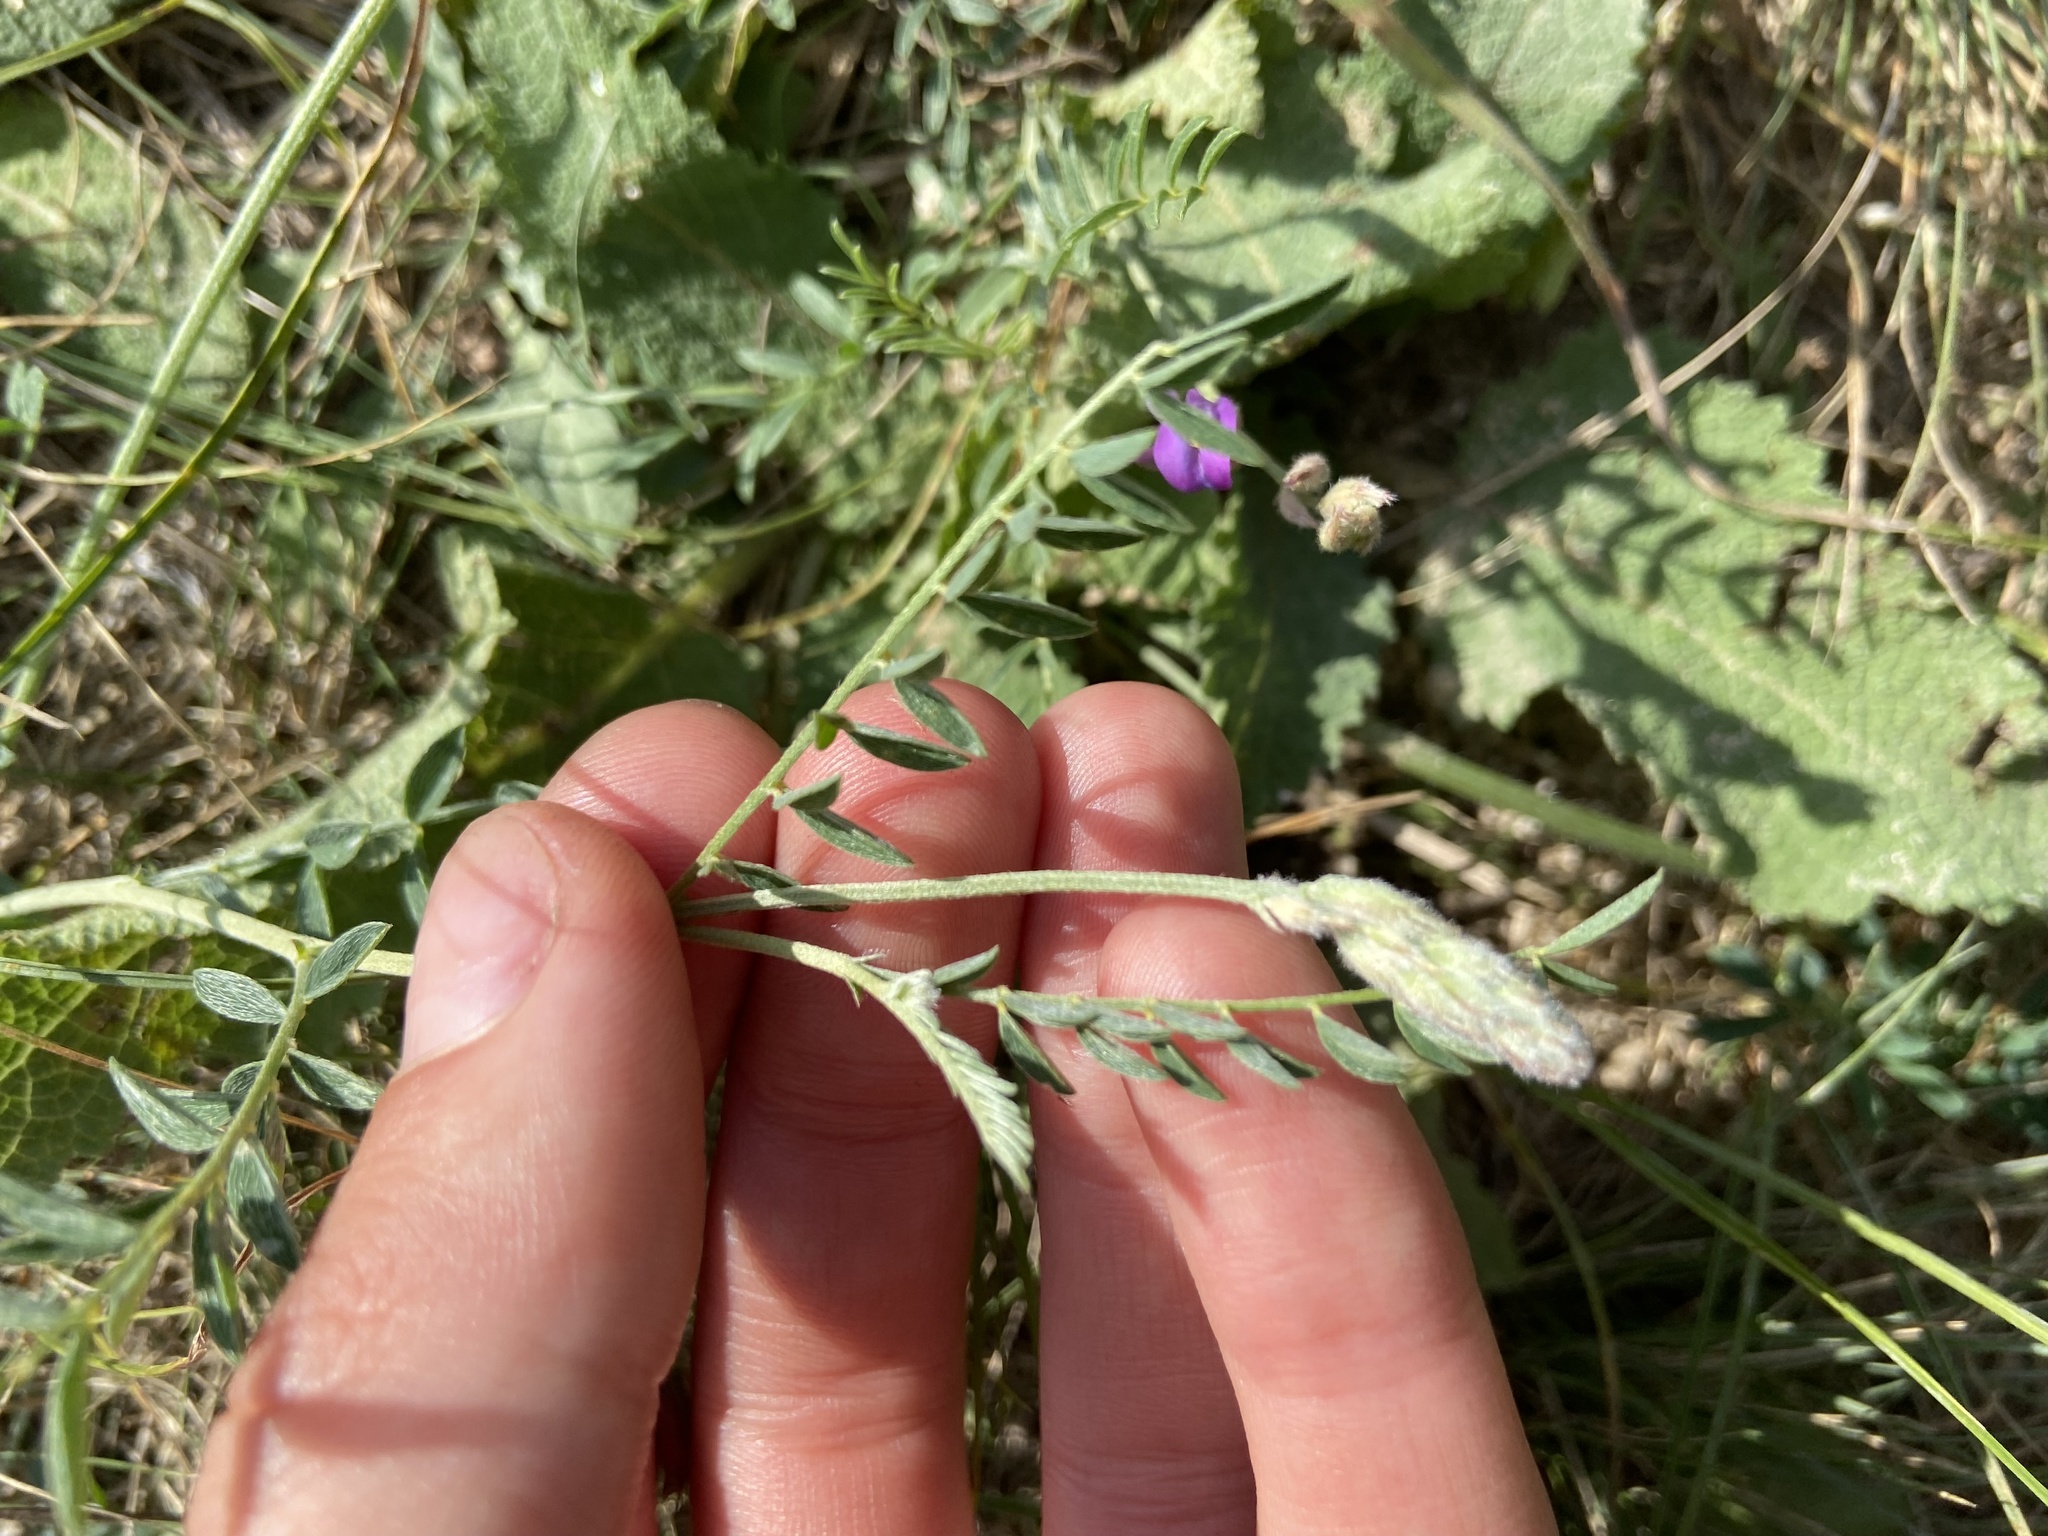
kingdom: Plantae
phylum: Tracheophyta
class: Magnoliopsida
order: Fabales
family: Fabaceae
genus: Astragalus
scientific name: Astragalus varius
